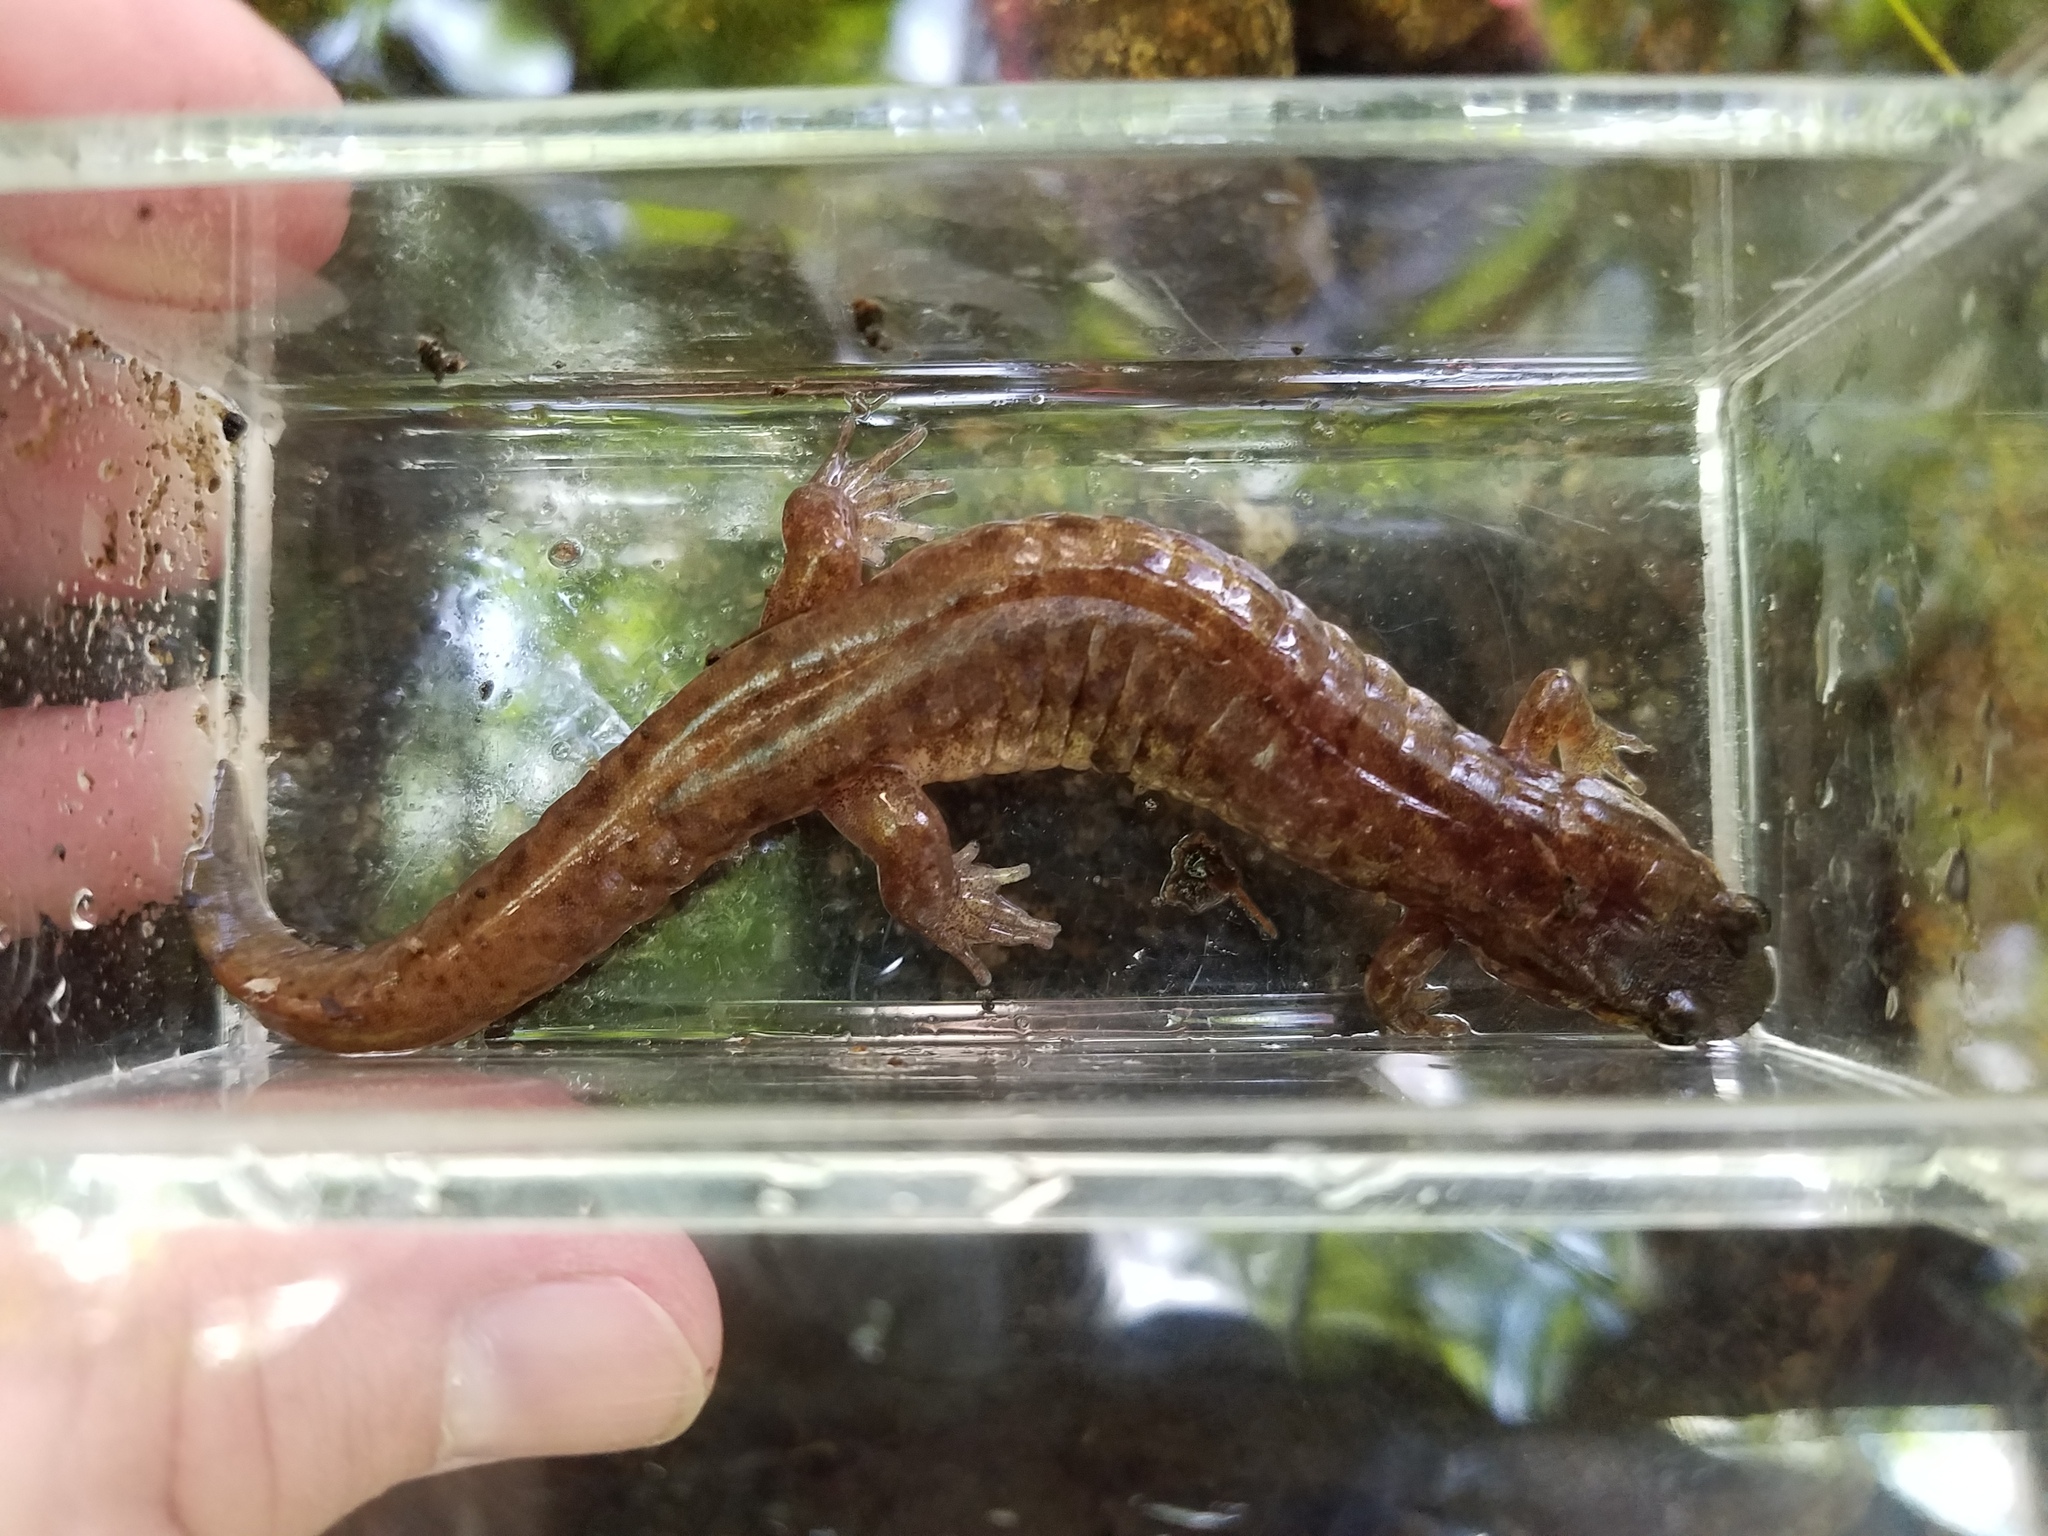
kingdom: Animalia
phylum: Chordata
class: Amphibia
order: Caudata
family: Plethodontidae
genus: Desmognathus
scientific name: Desmognathus monticola
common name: Seal salamander
